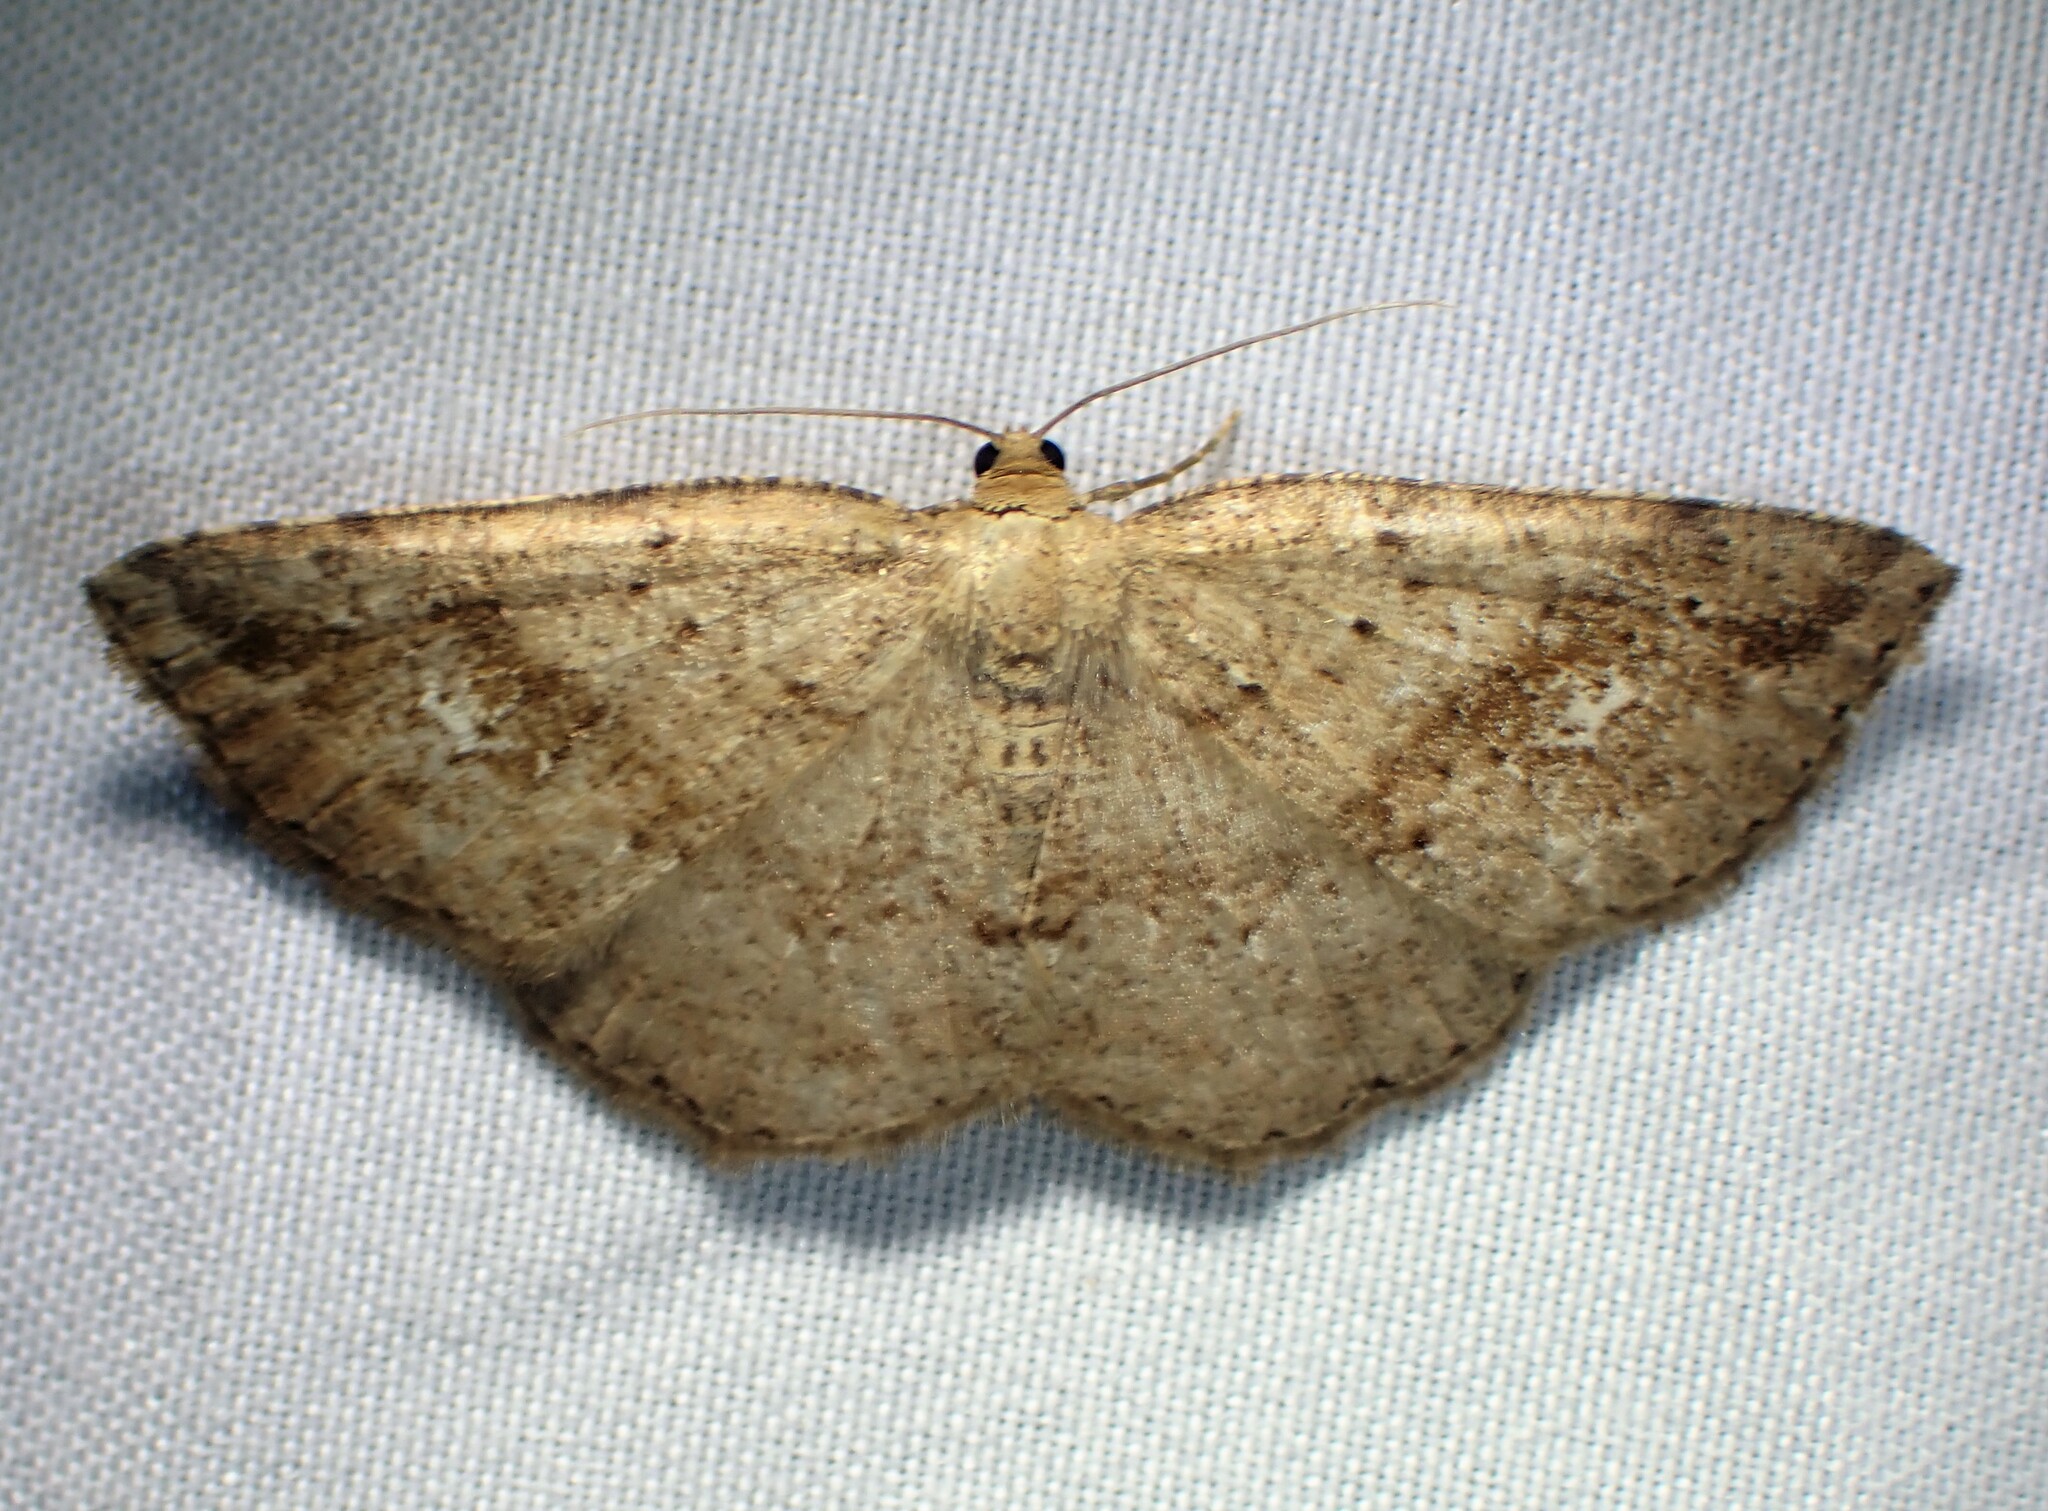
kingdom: Animalia
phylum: Arthropoda
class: Insecta
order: Lepidoptera
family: Geometridae
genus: Homochlodes
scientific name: Homochlodes fritillaria
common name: Pale homochlodes
